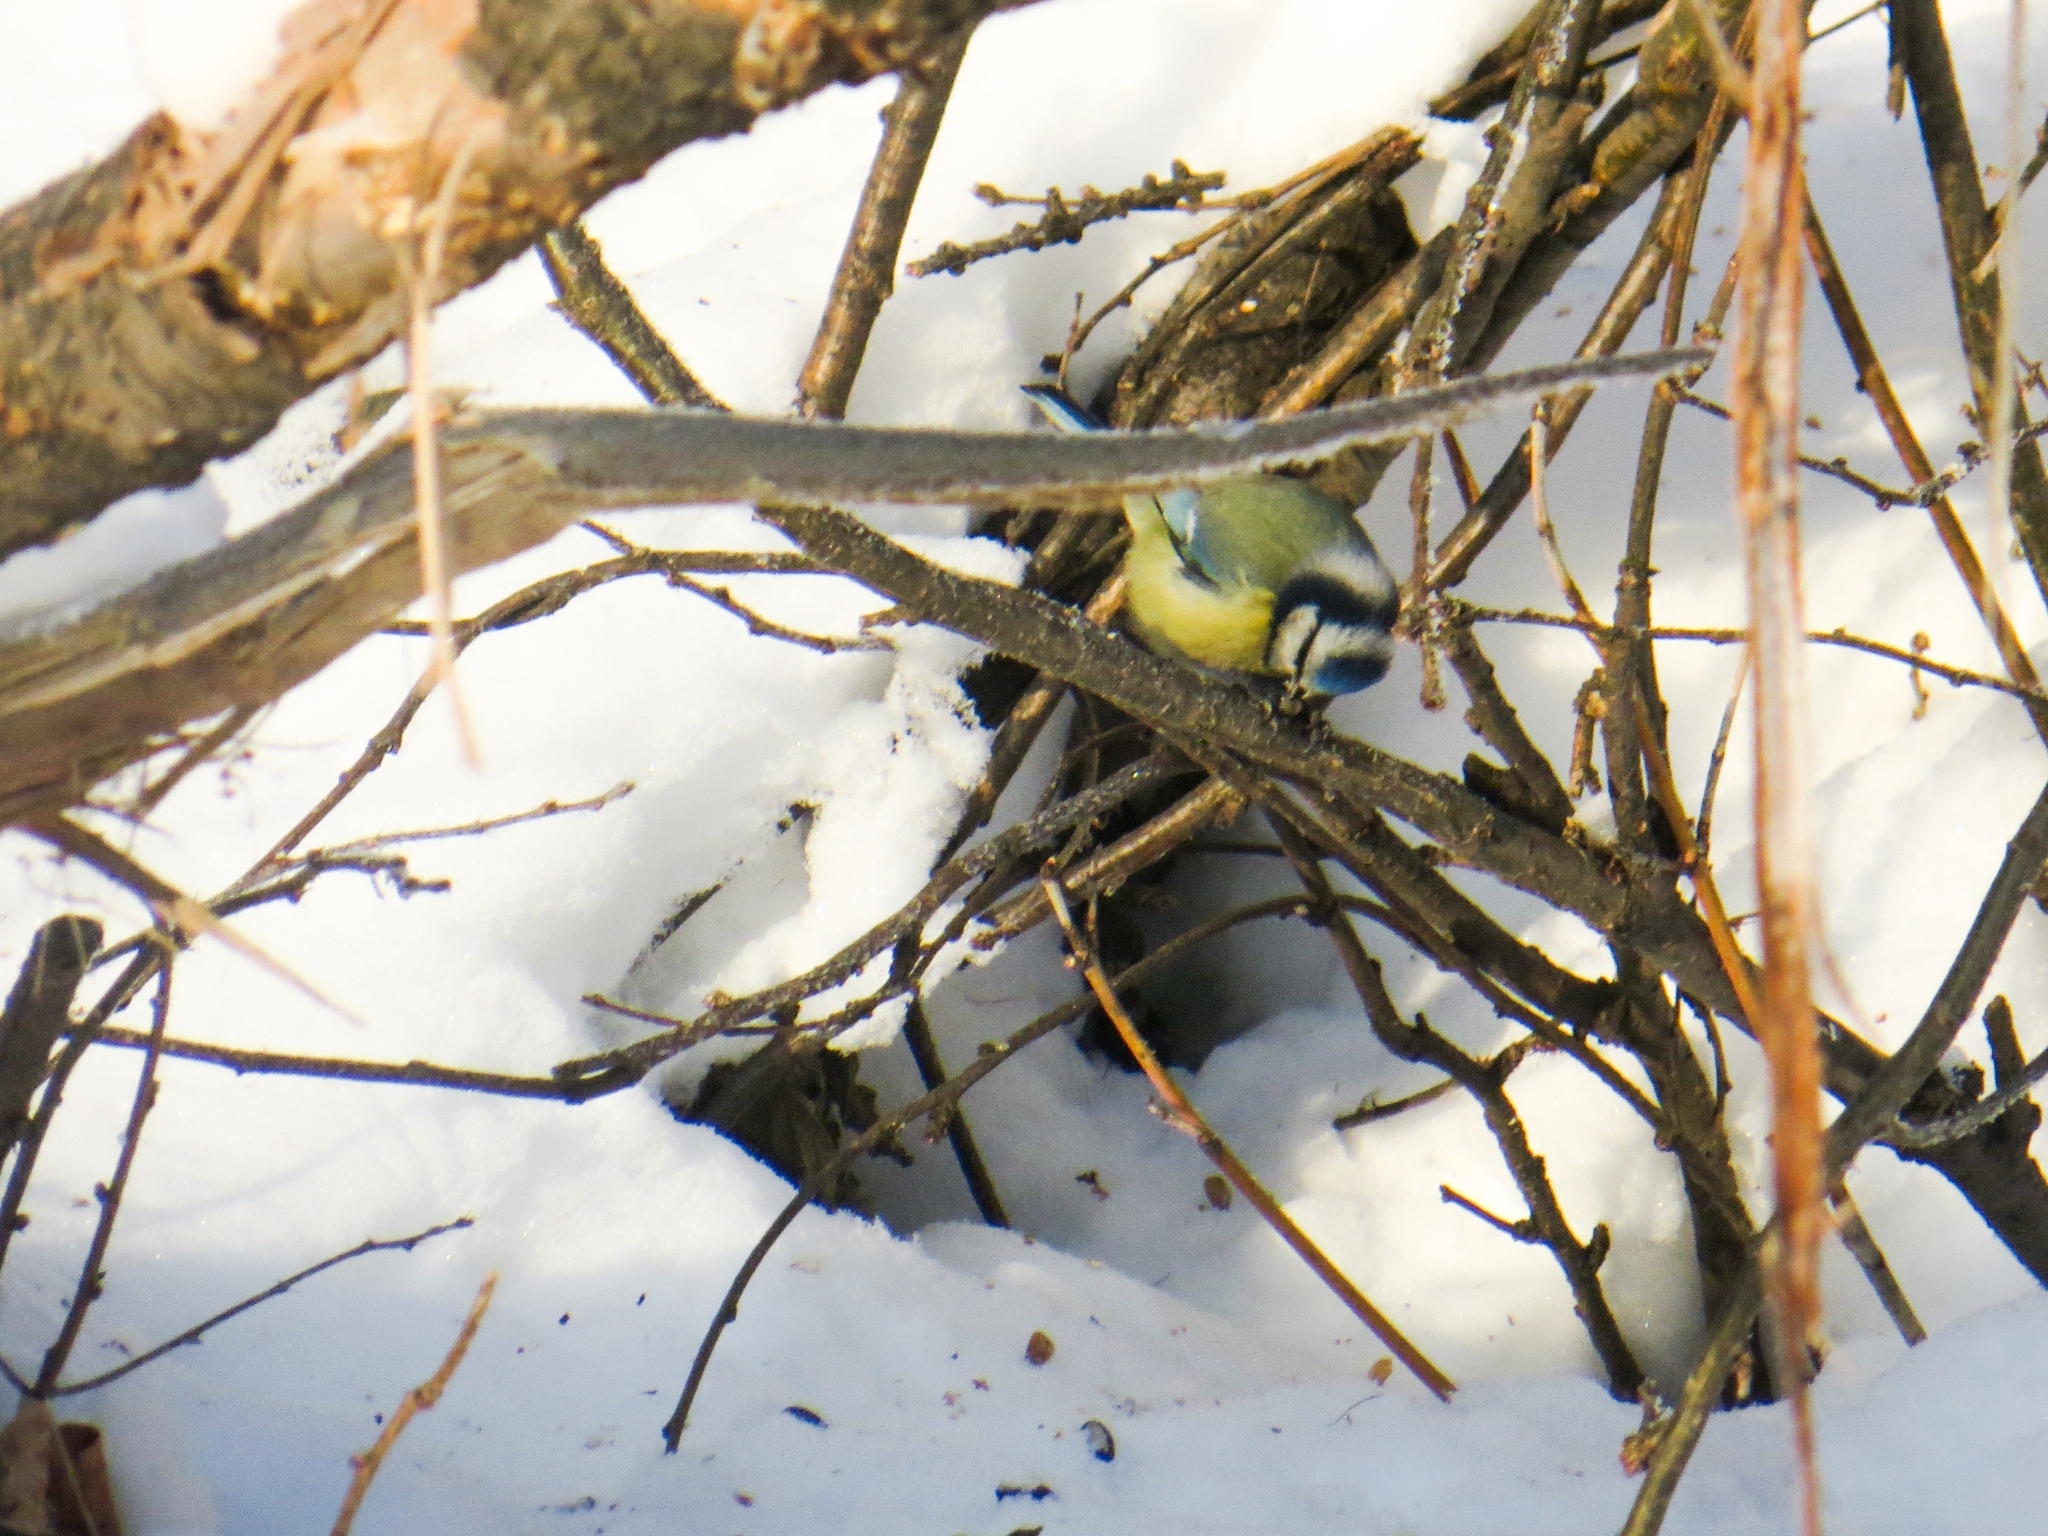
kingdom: Animalia
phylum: Chordata
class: Aves
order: Passeriformes
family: Paridae
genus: Cyanistes
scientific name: Cyanistes caeruleus
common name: Eurasian blue tit
